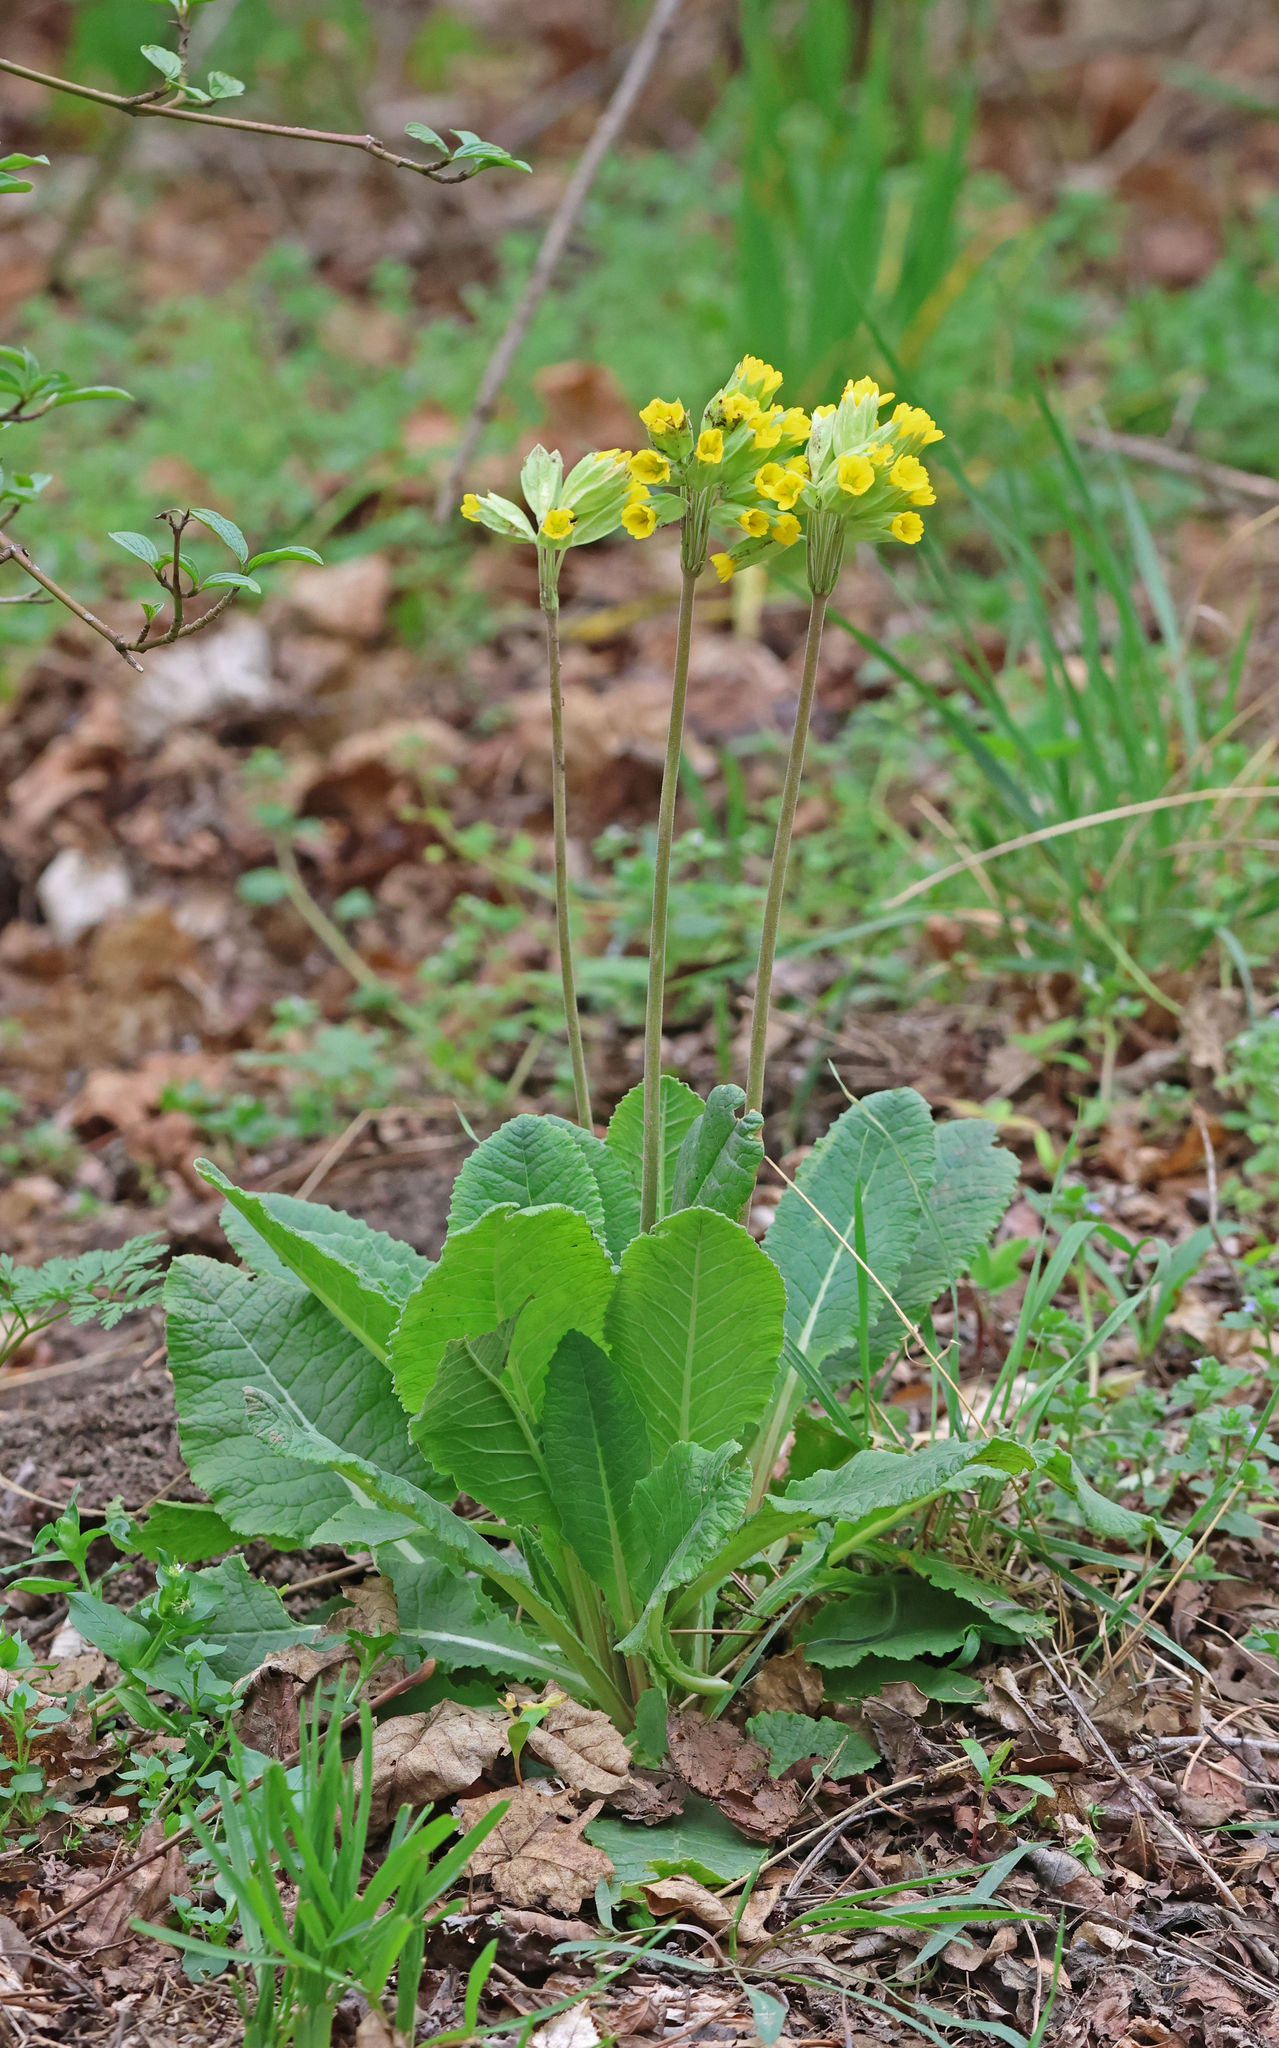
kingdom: Plantae
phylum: Tracheophyta
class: Magnoliopsida
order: Ericales
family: Primulaceae
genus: Primula
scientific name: Primula veris
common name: Cowslip
